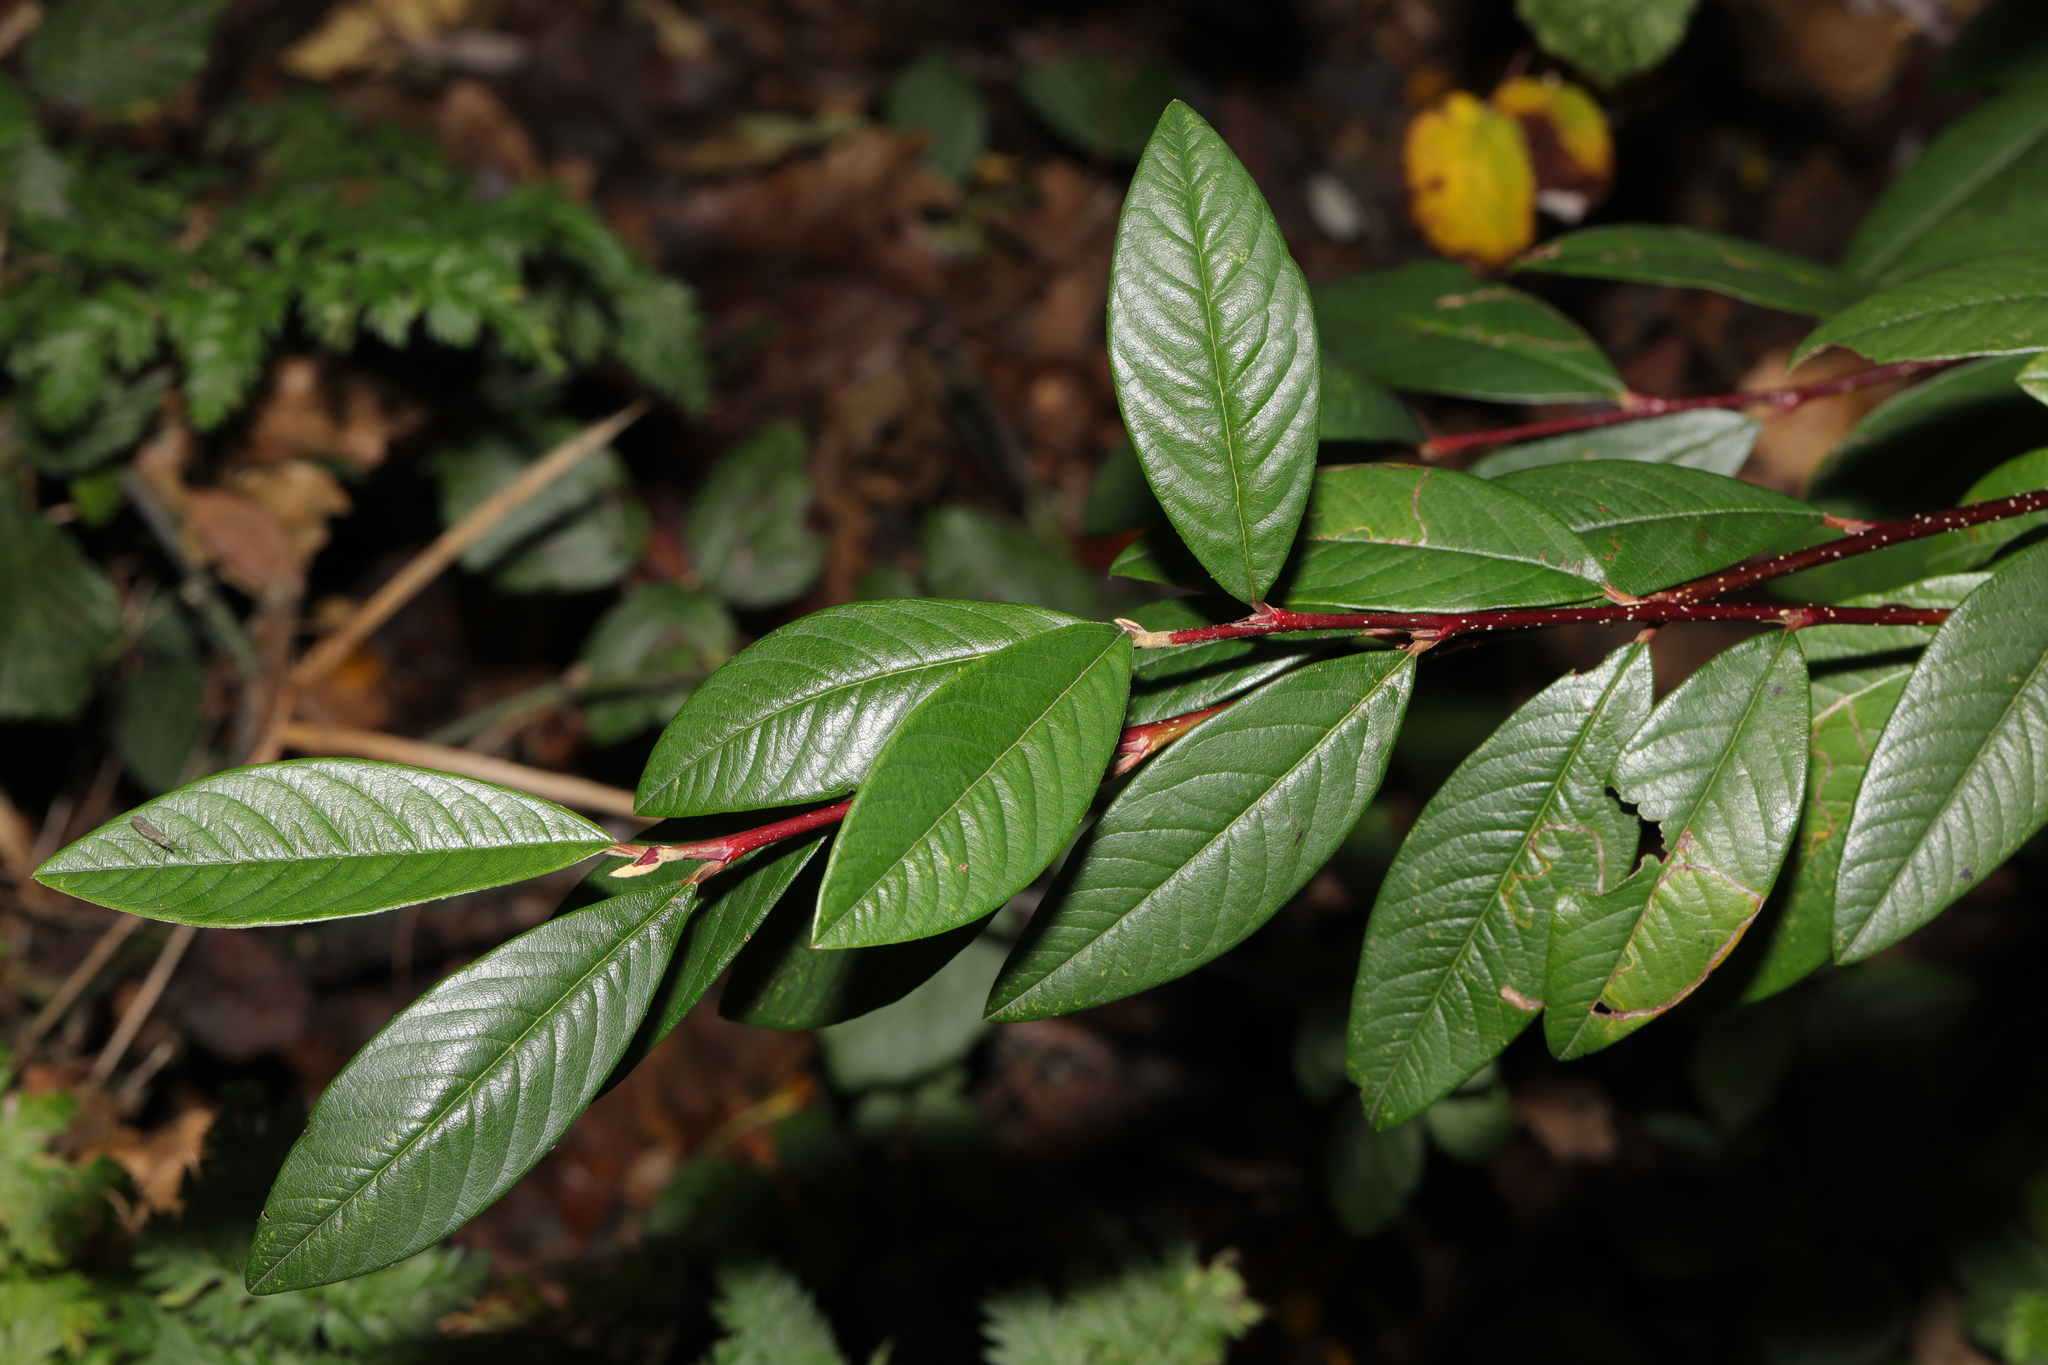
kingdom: Plantae
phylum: Tracheophyta
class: Magnoliopsida
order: Rosales
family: Rosaceae
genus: Cotoneaster
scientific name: Cotoneaster coriaceus
